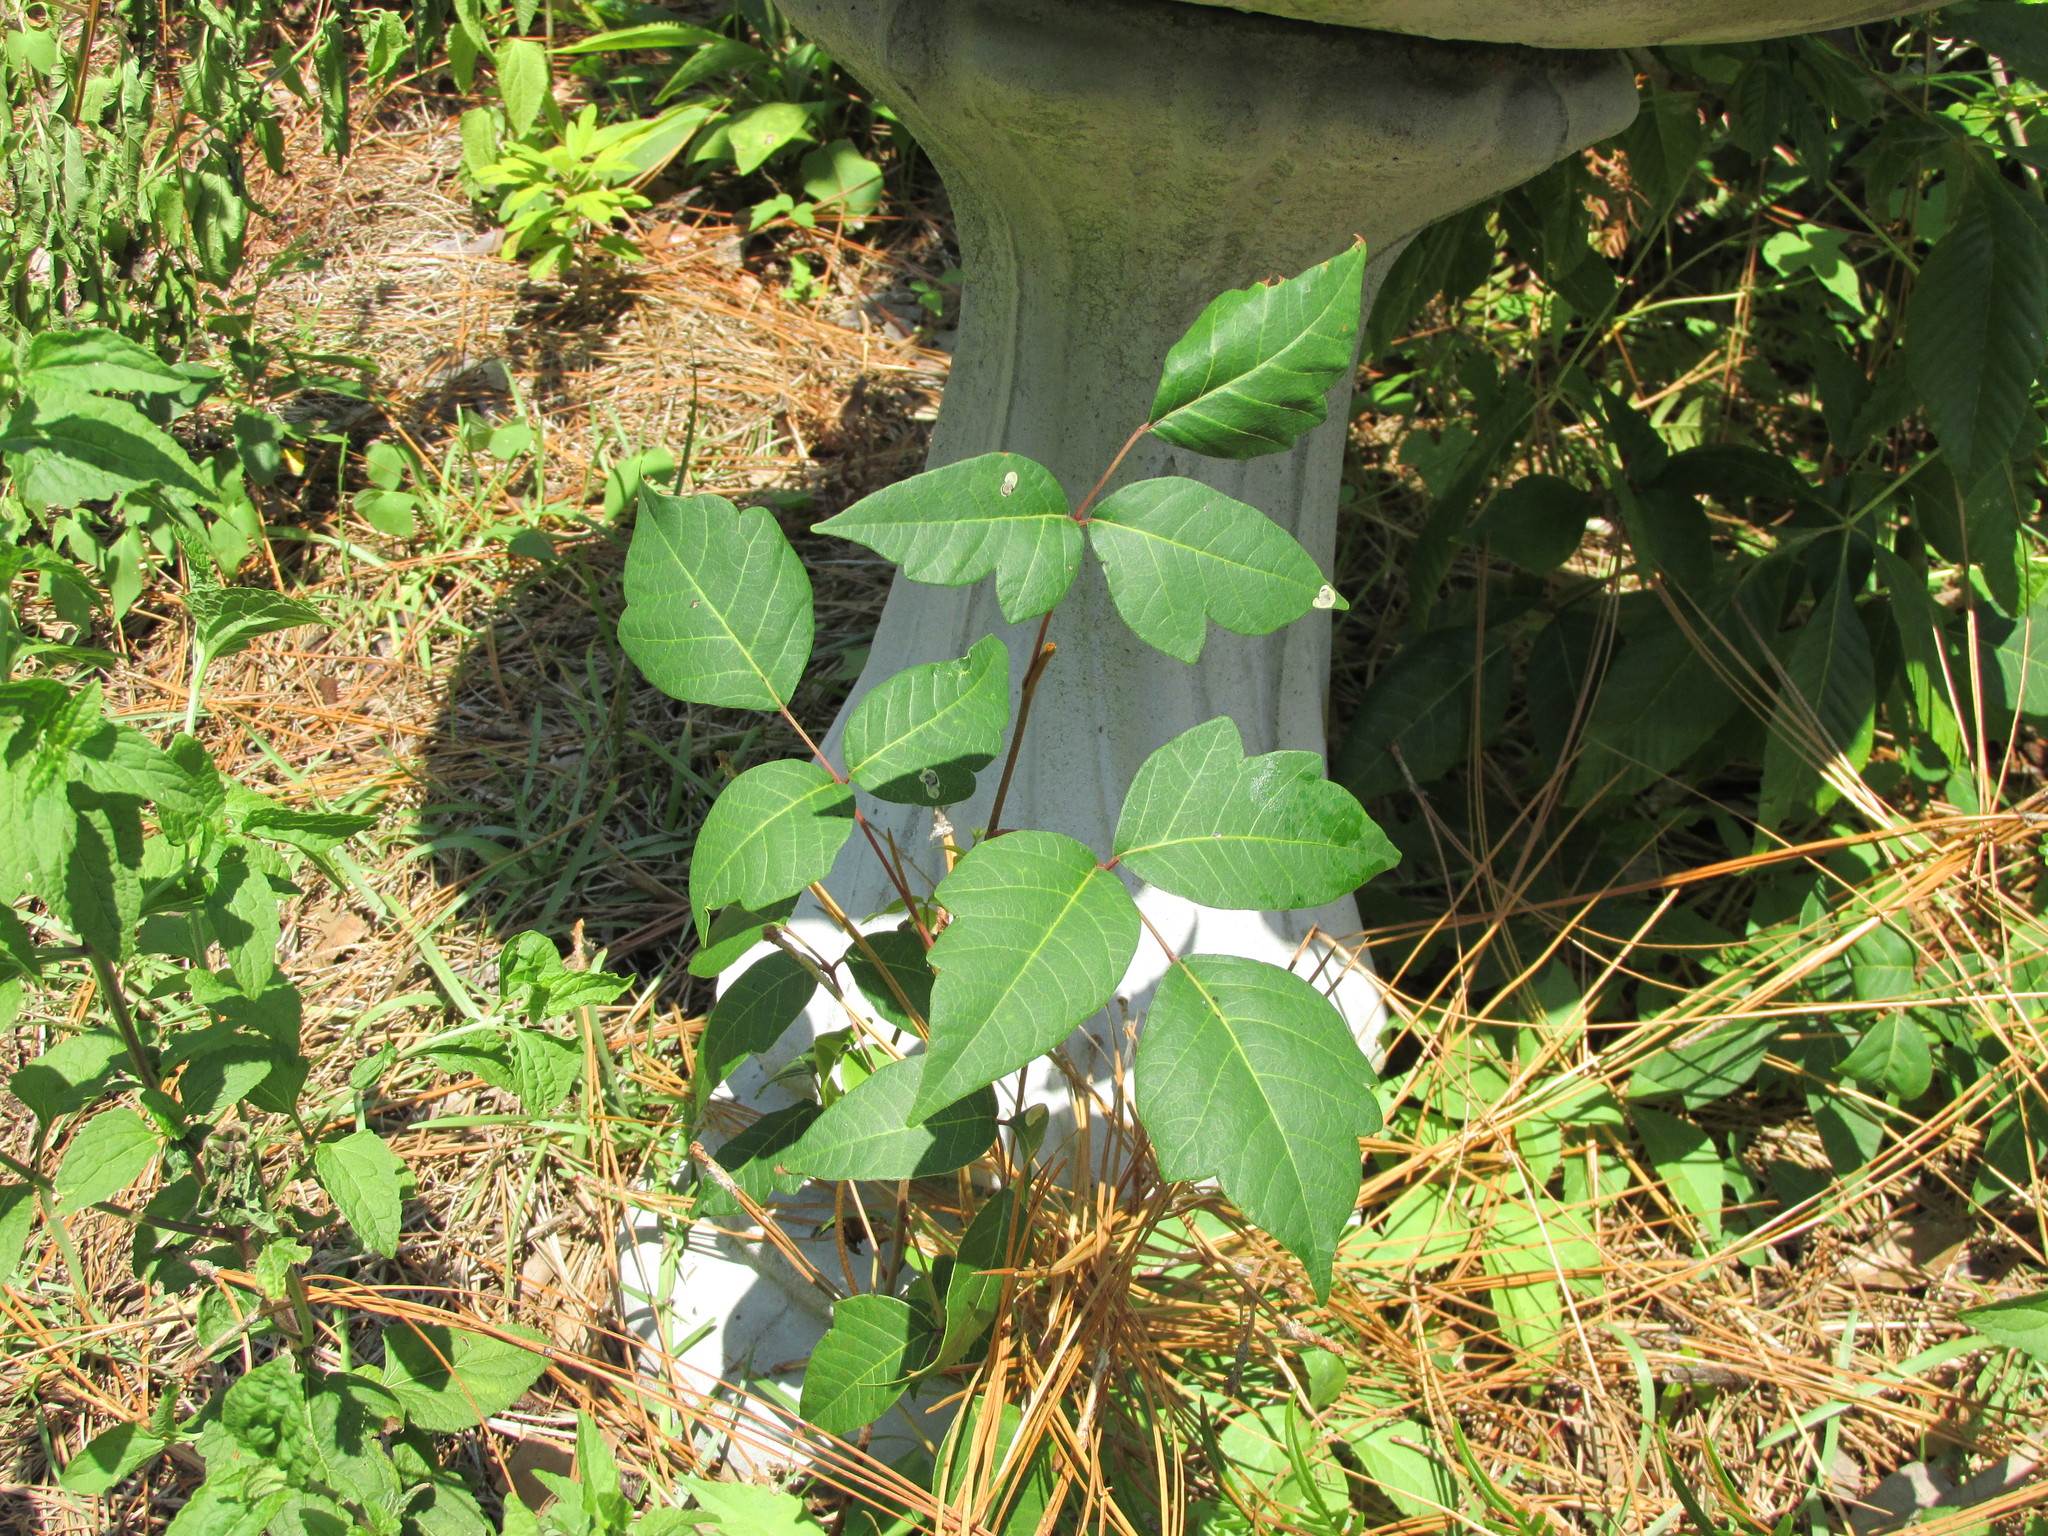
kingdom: Plantae
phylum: Tracheophyta
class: Magnoliopsida
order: Sapindales
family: Anacardiaceae
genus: Toxicodendron
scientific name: Toxicodendron radicans
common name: Poison ivy
